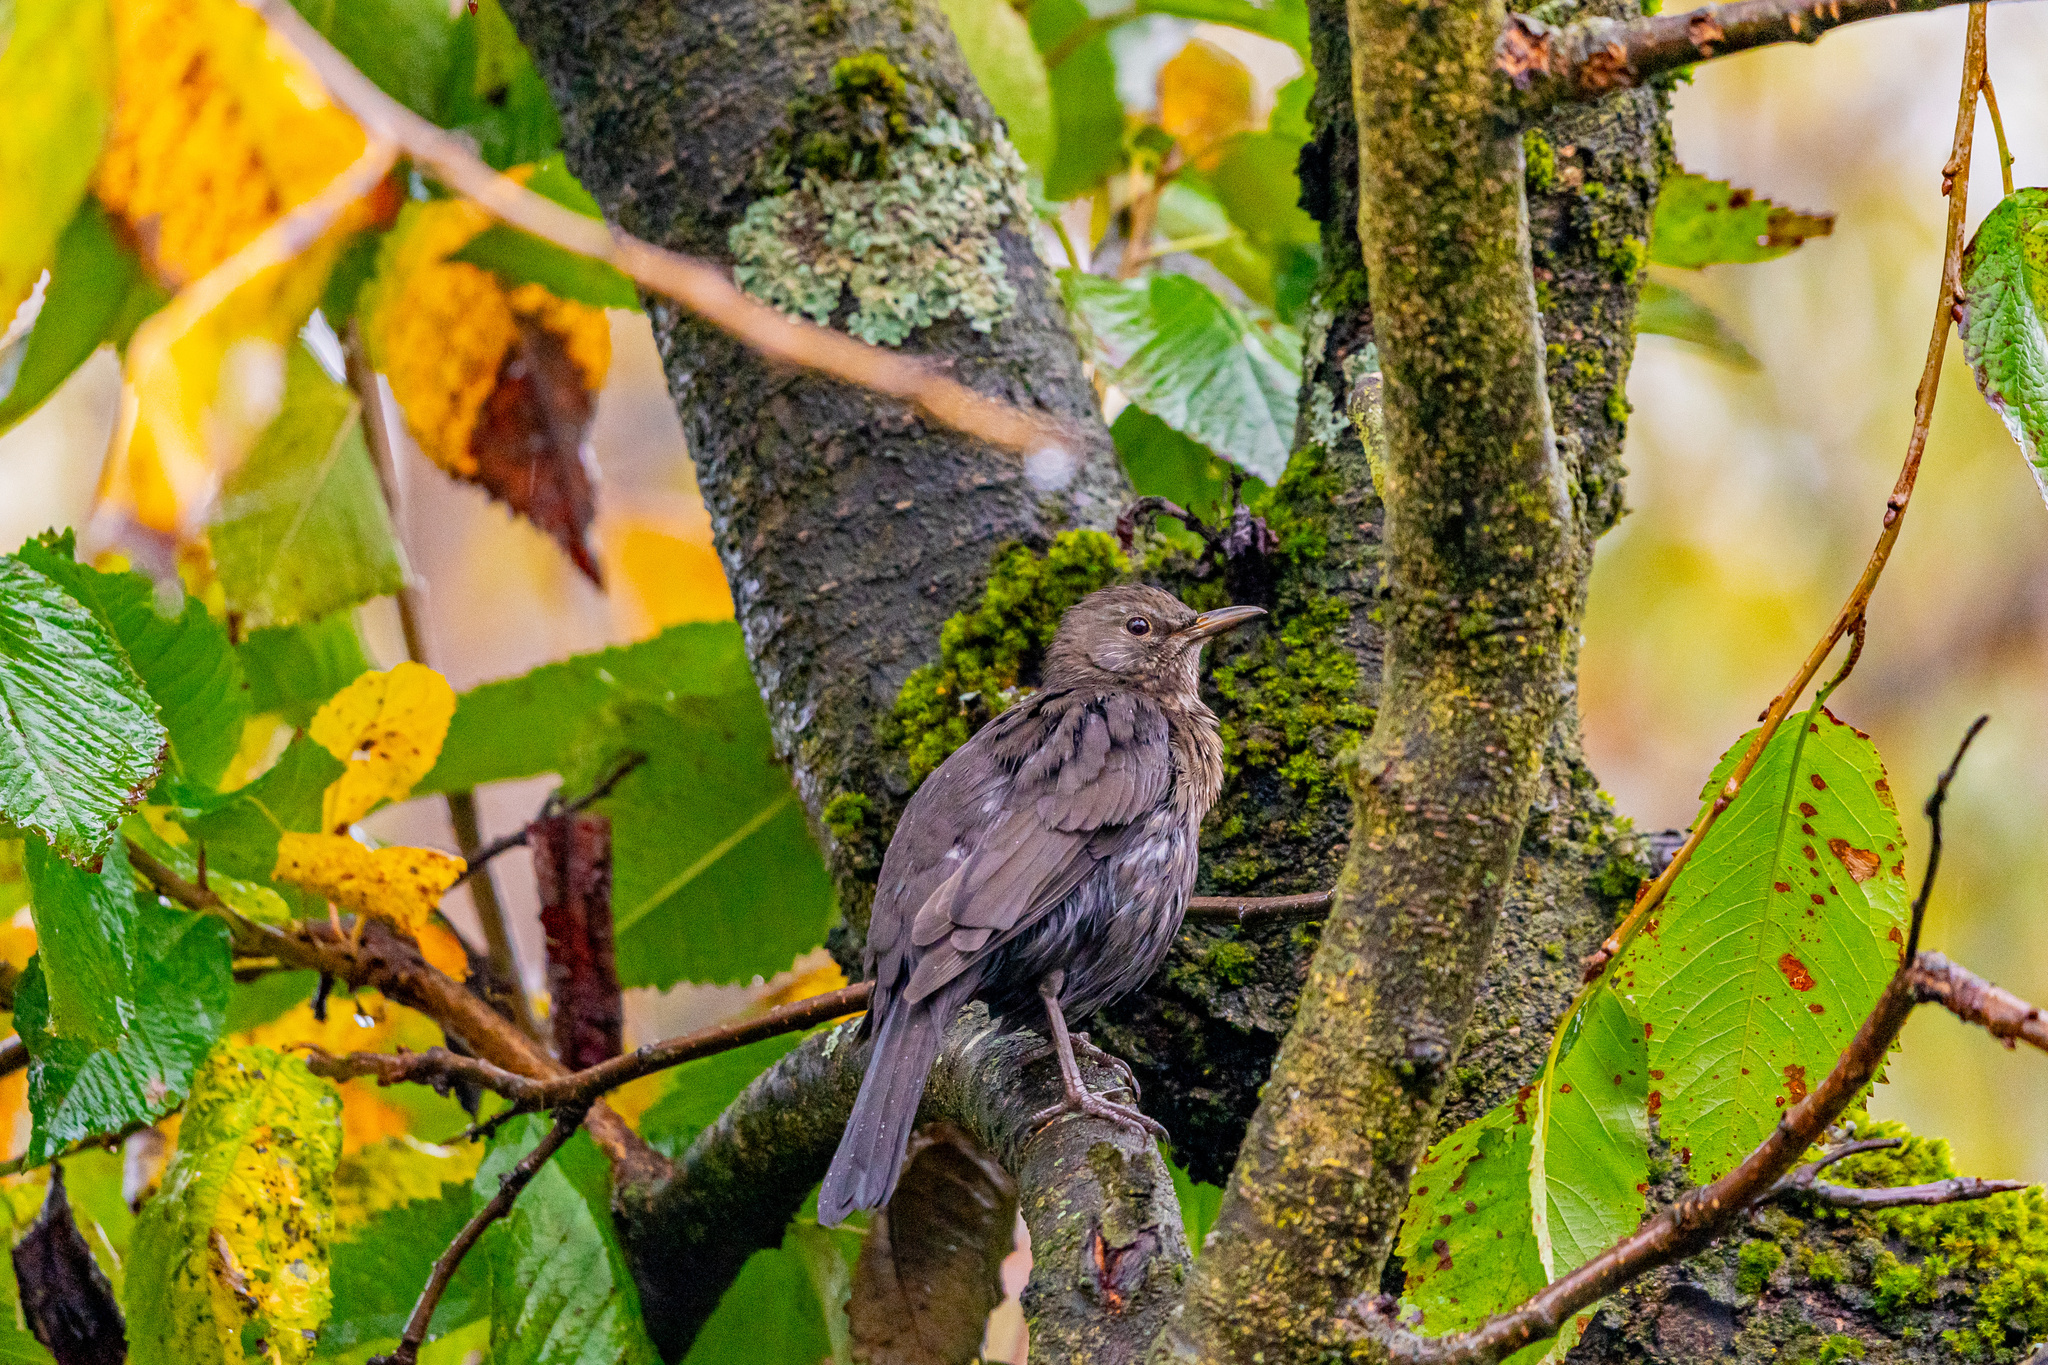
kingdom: Animalia
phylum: Chordata
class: Aves
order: Passeriformes
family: Turdidae
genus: Turdus
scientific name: Turdus merula
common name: Common blackbird
